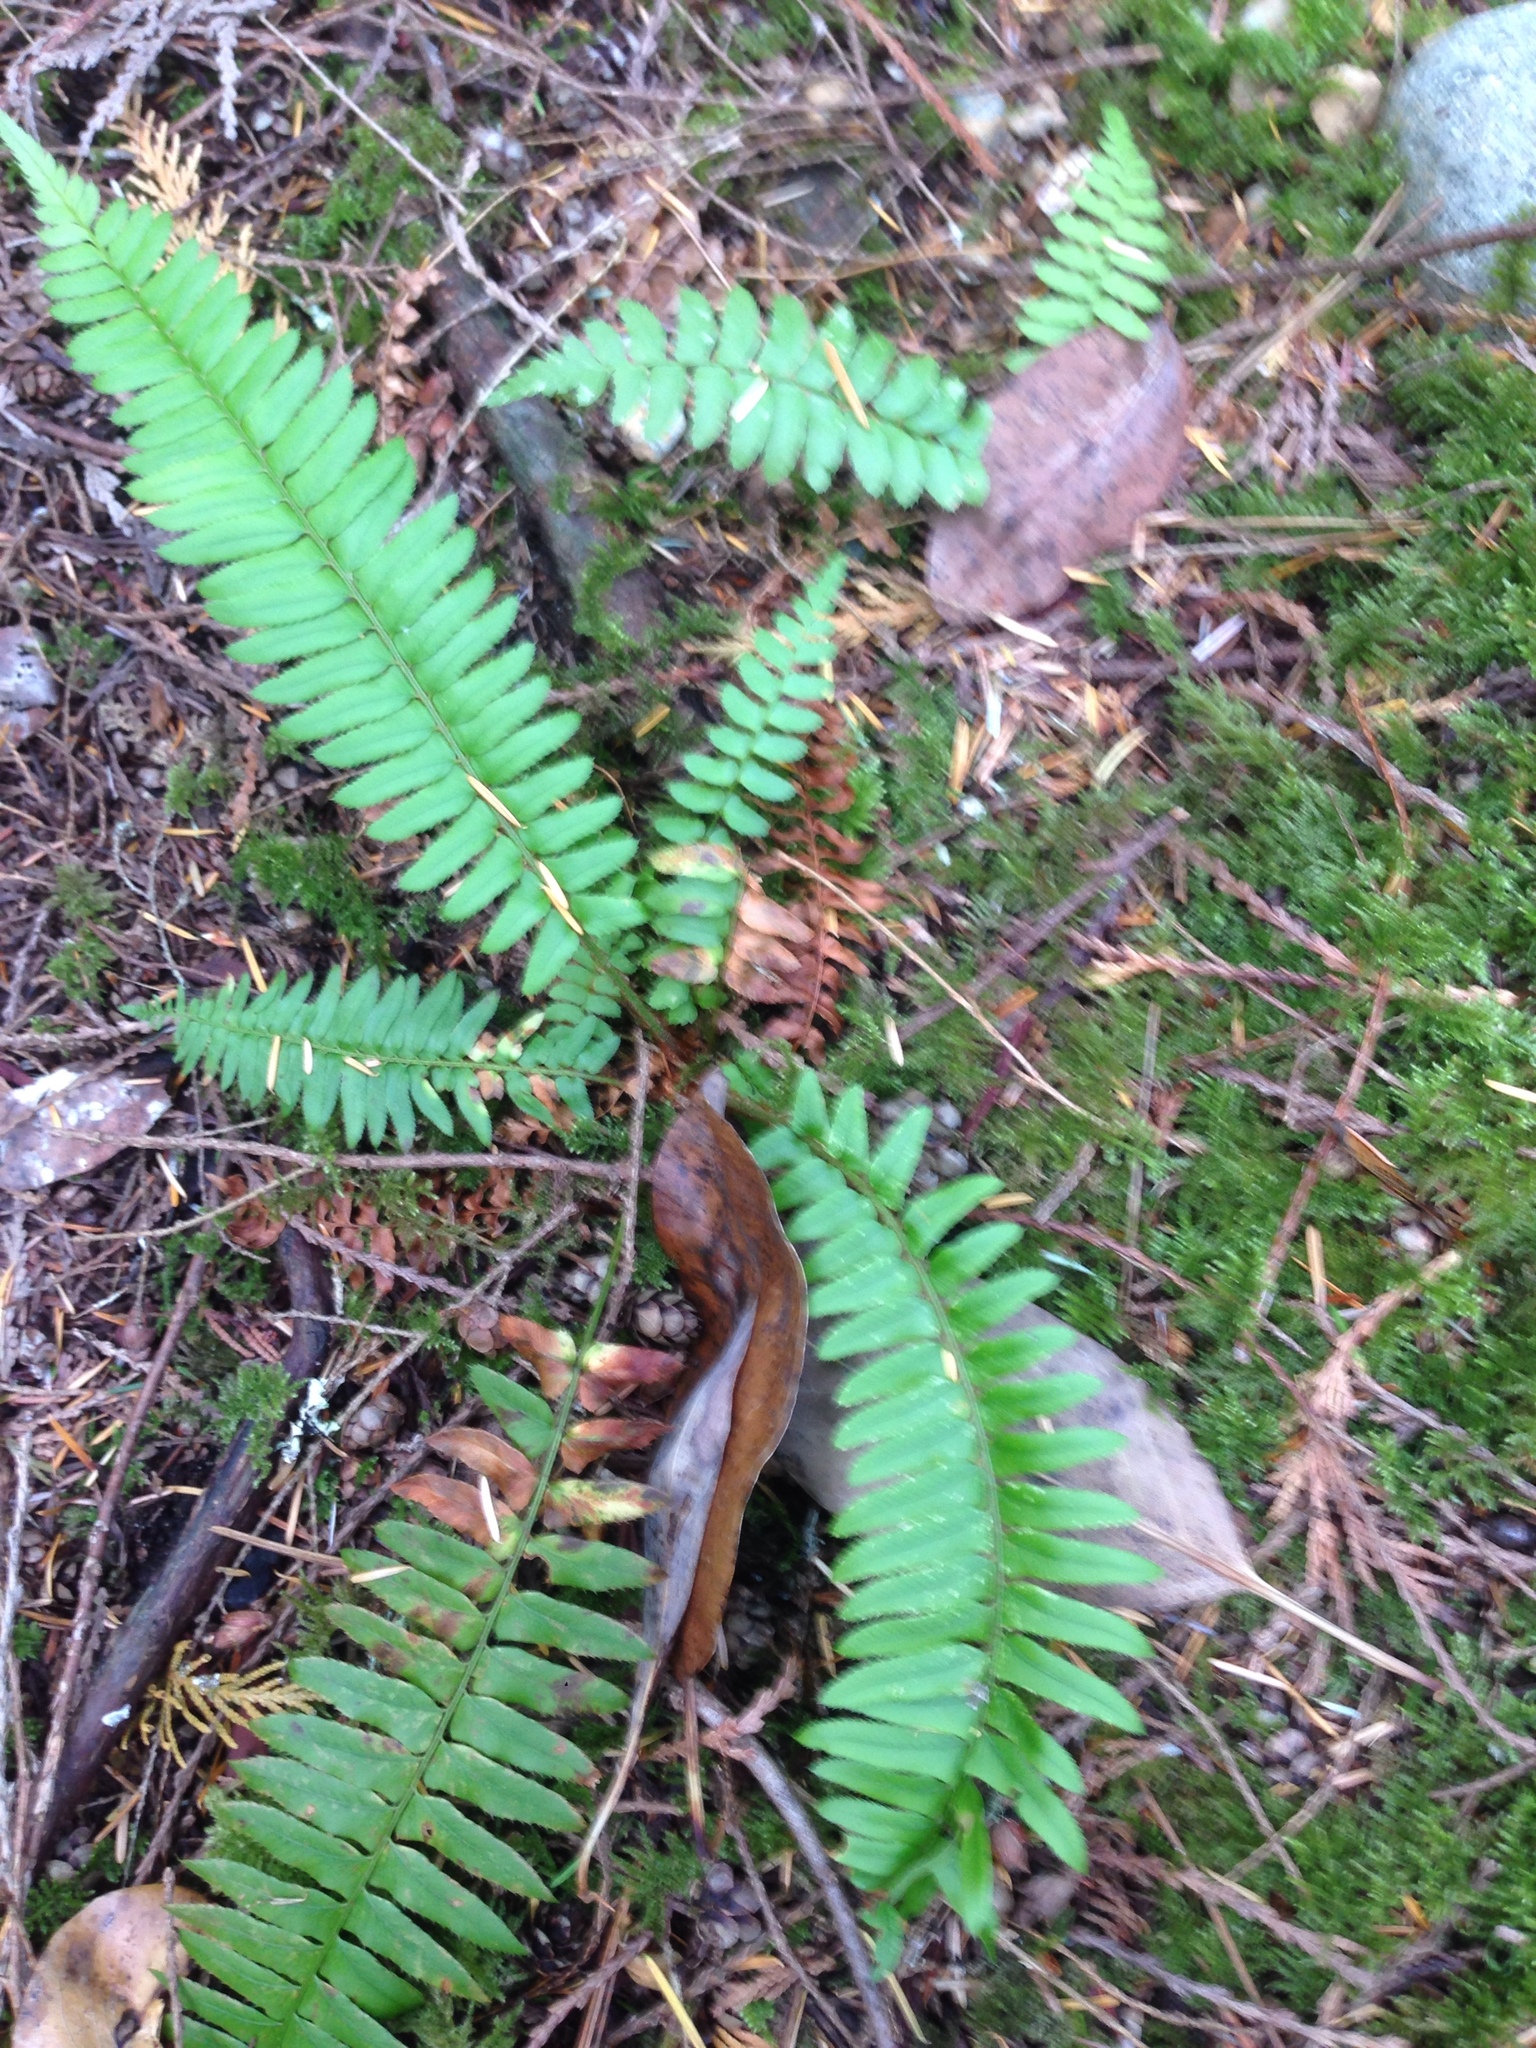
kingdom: Plantae
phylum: Tracheophyta
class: Polypodiopsida
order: Polypodiales
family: Dryopteridaceae
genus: Polystichum
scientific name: Polystichum munitum
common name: Western sword-fern
